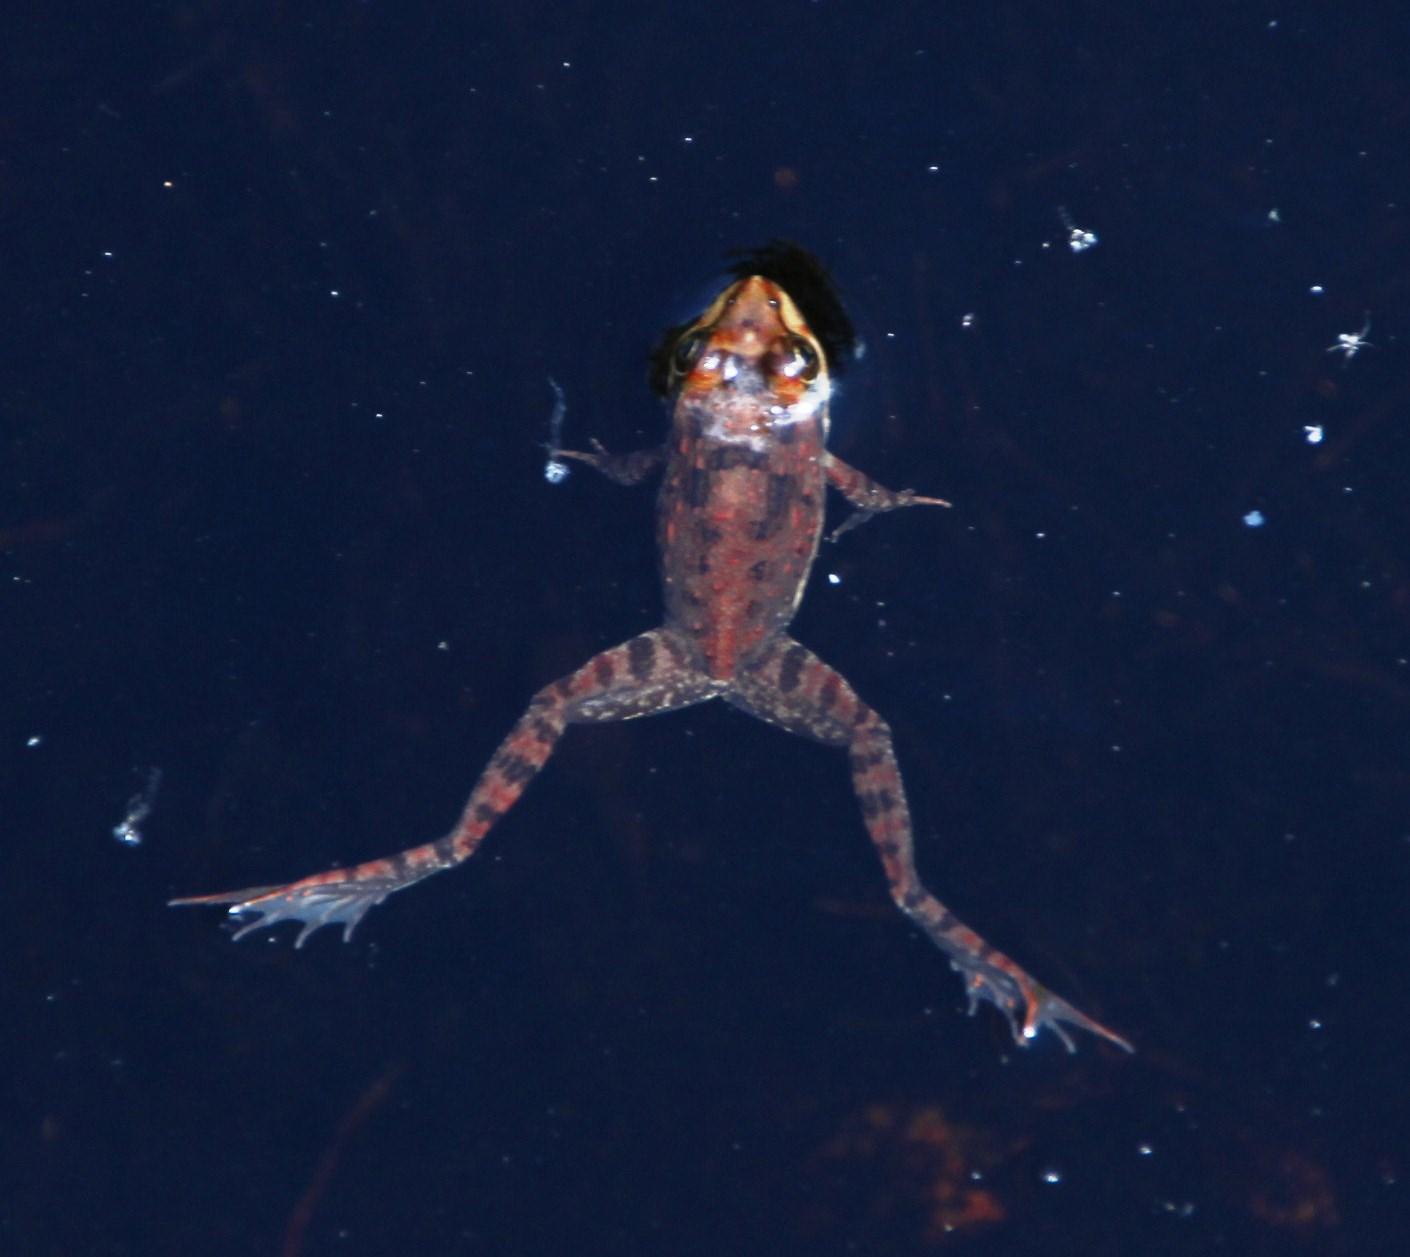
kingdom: Animalia
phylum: Chordata
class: Amphibia
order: Anura
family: Pyxicephalidae
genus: Amietia
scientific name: Amietia fuscigula
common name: Cape rana
